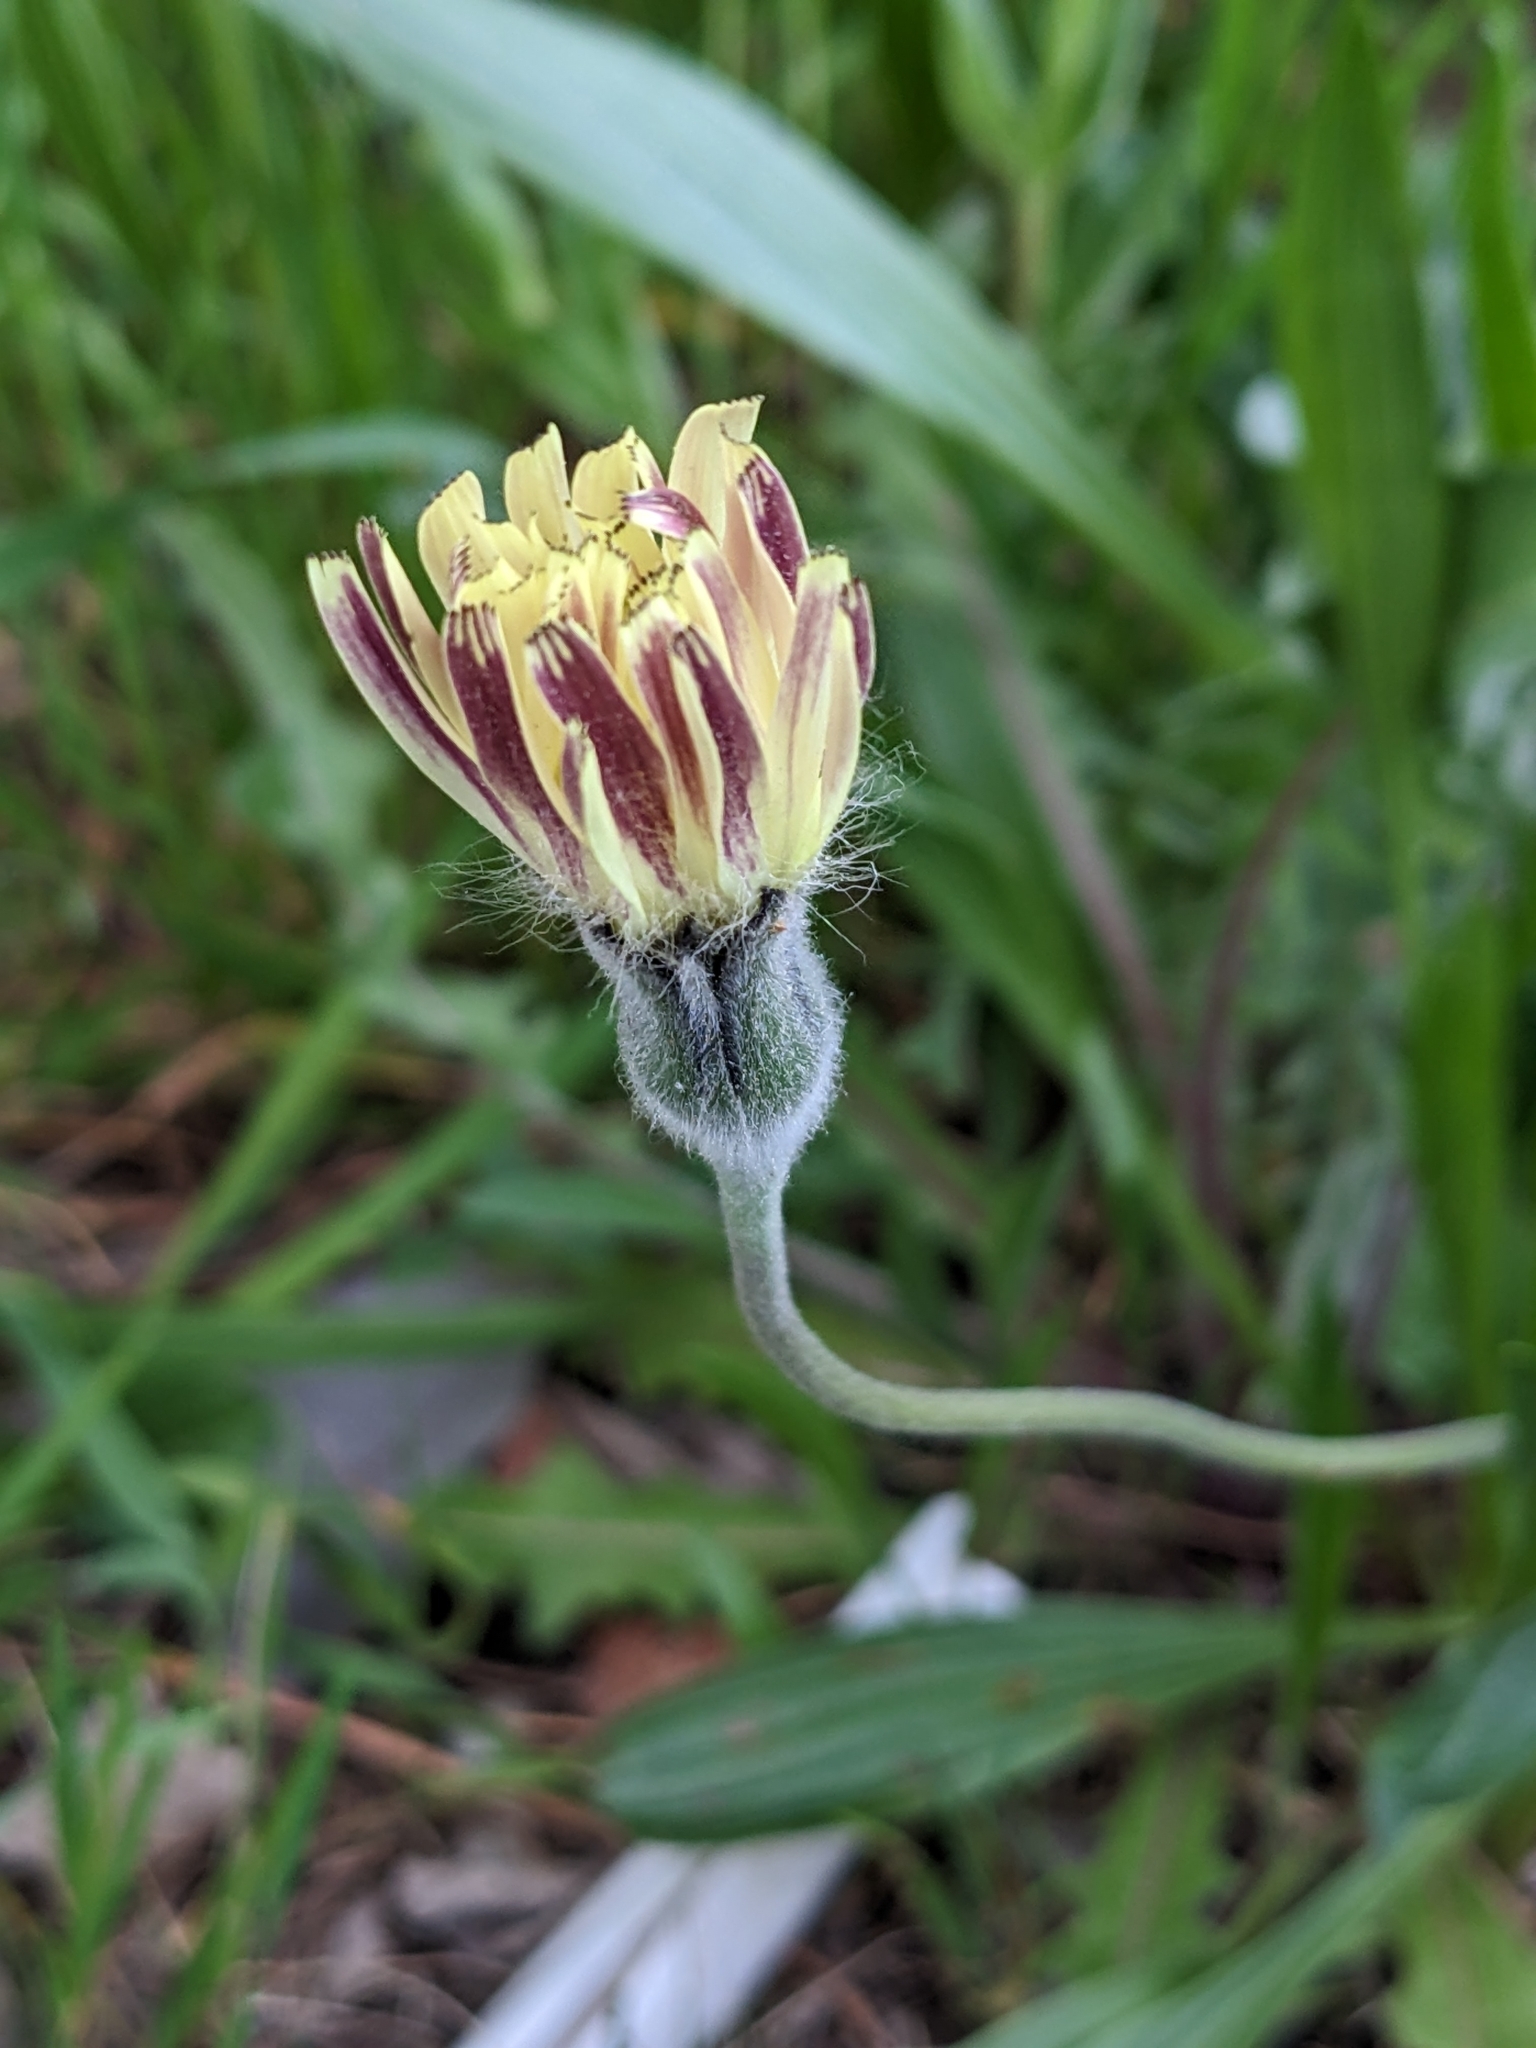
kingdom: Plantae
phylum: Tracheophyta
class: Magnoliopsida
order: Asterales
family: Asteraceae
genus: Urospermum
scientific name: Urospermum dalechampii
